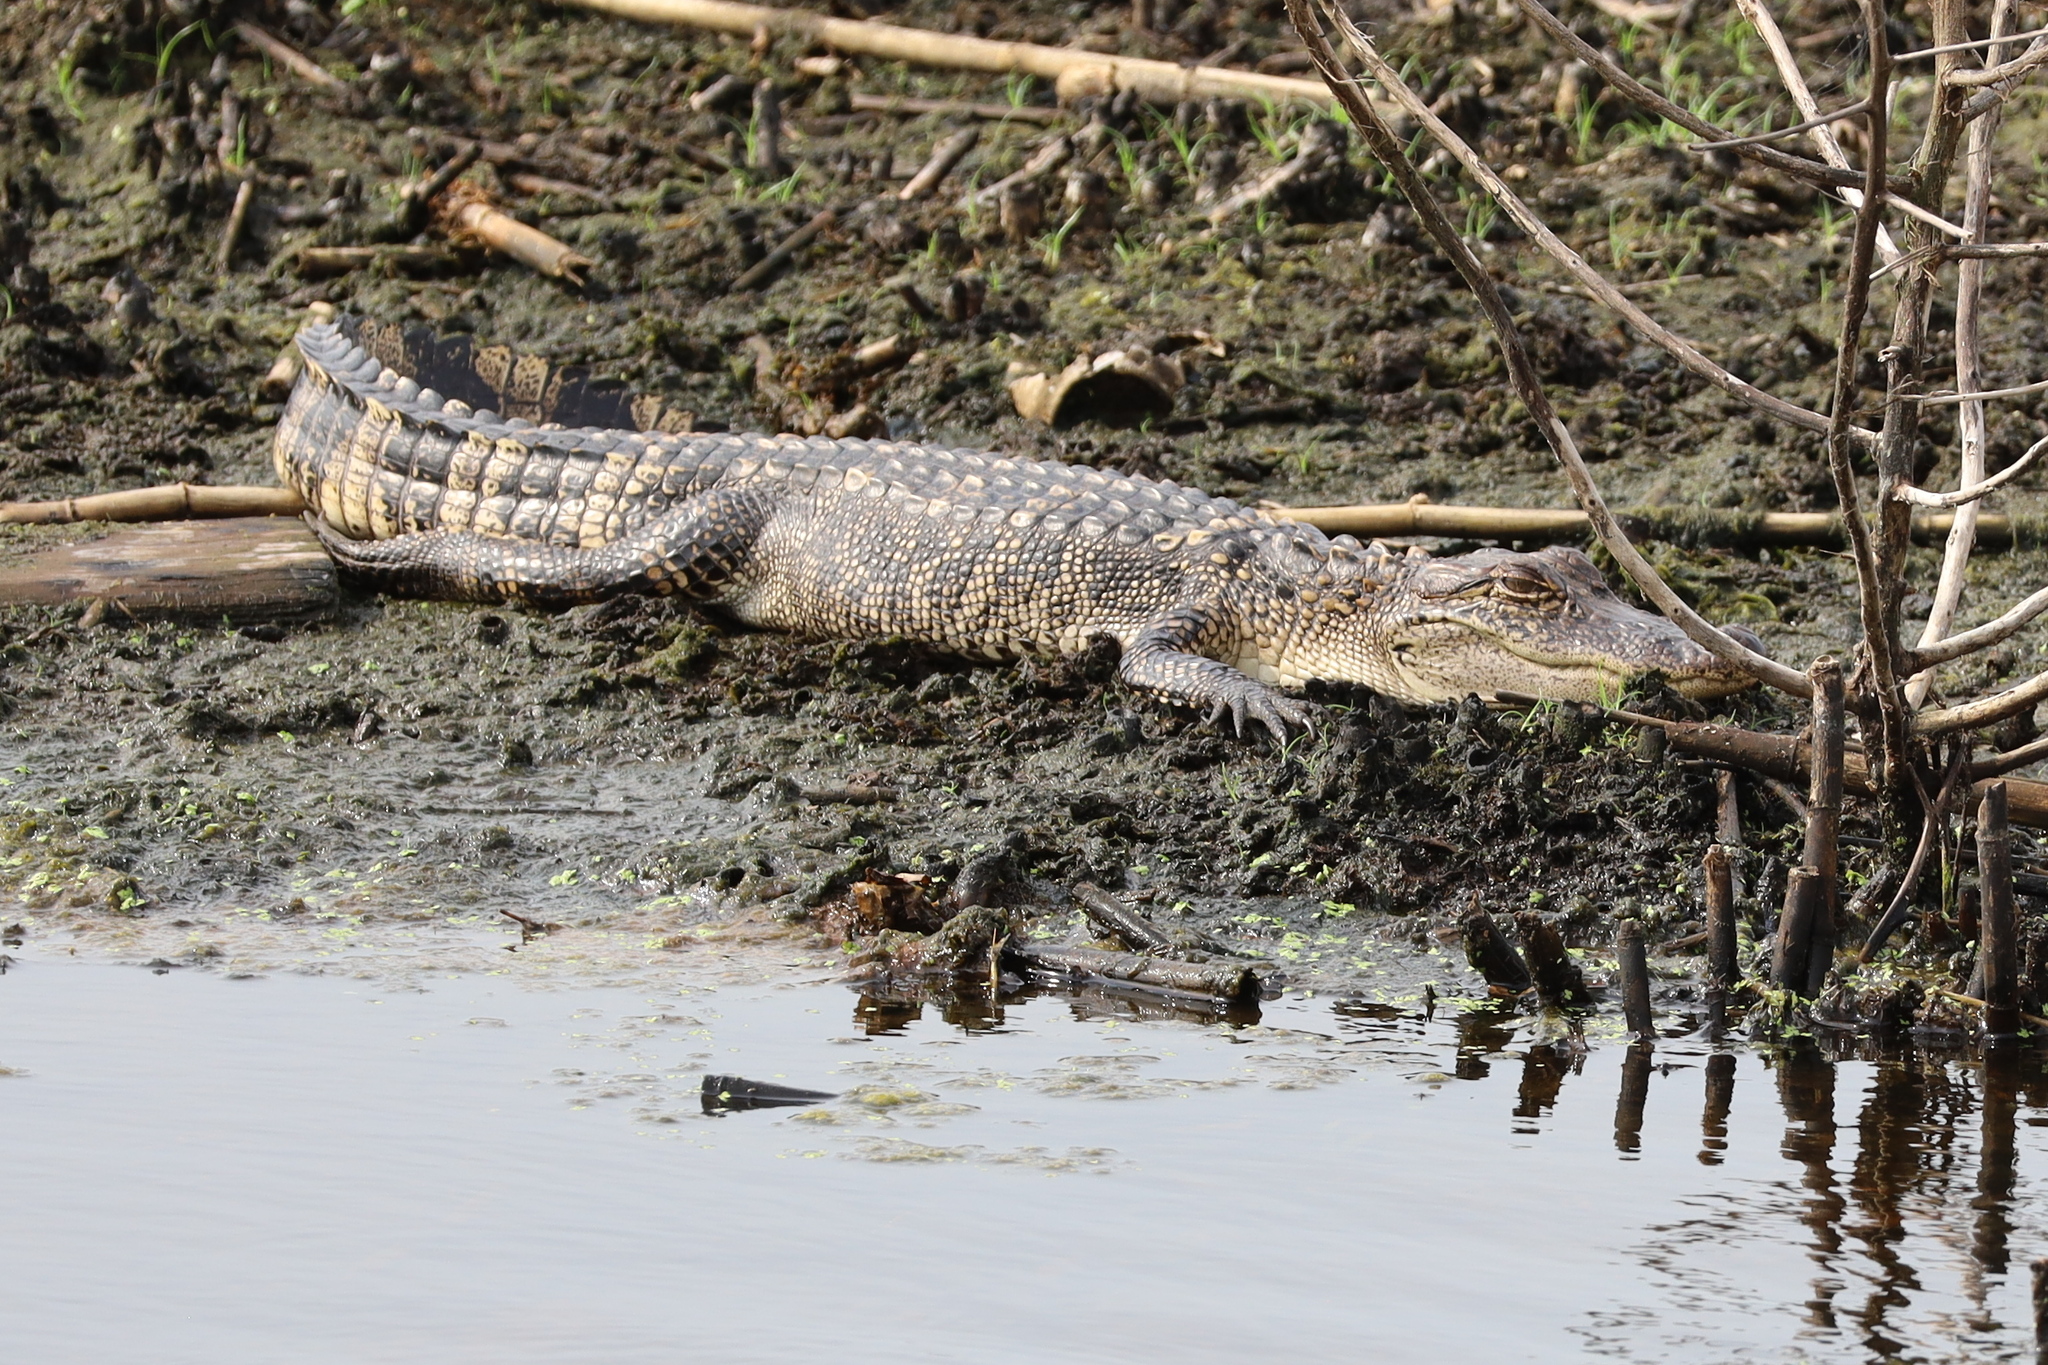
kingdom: Animalia
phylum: Chordata
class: Crocodylia
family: Alligatoridae
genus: Alligator
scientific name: Alligator mississippiensis
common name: American alligator
